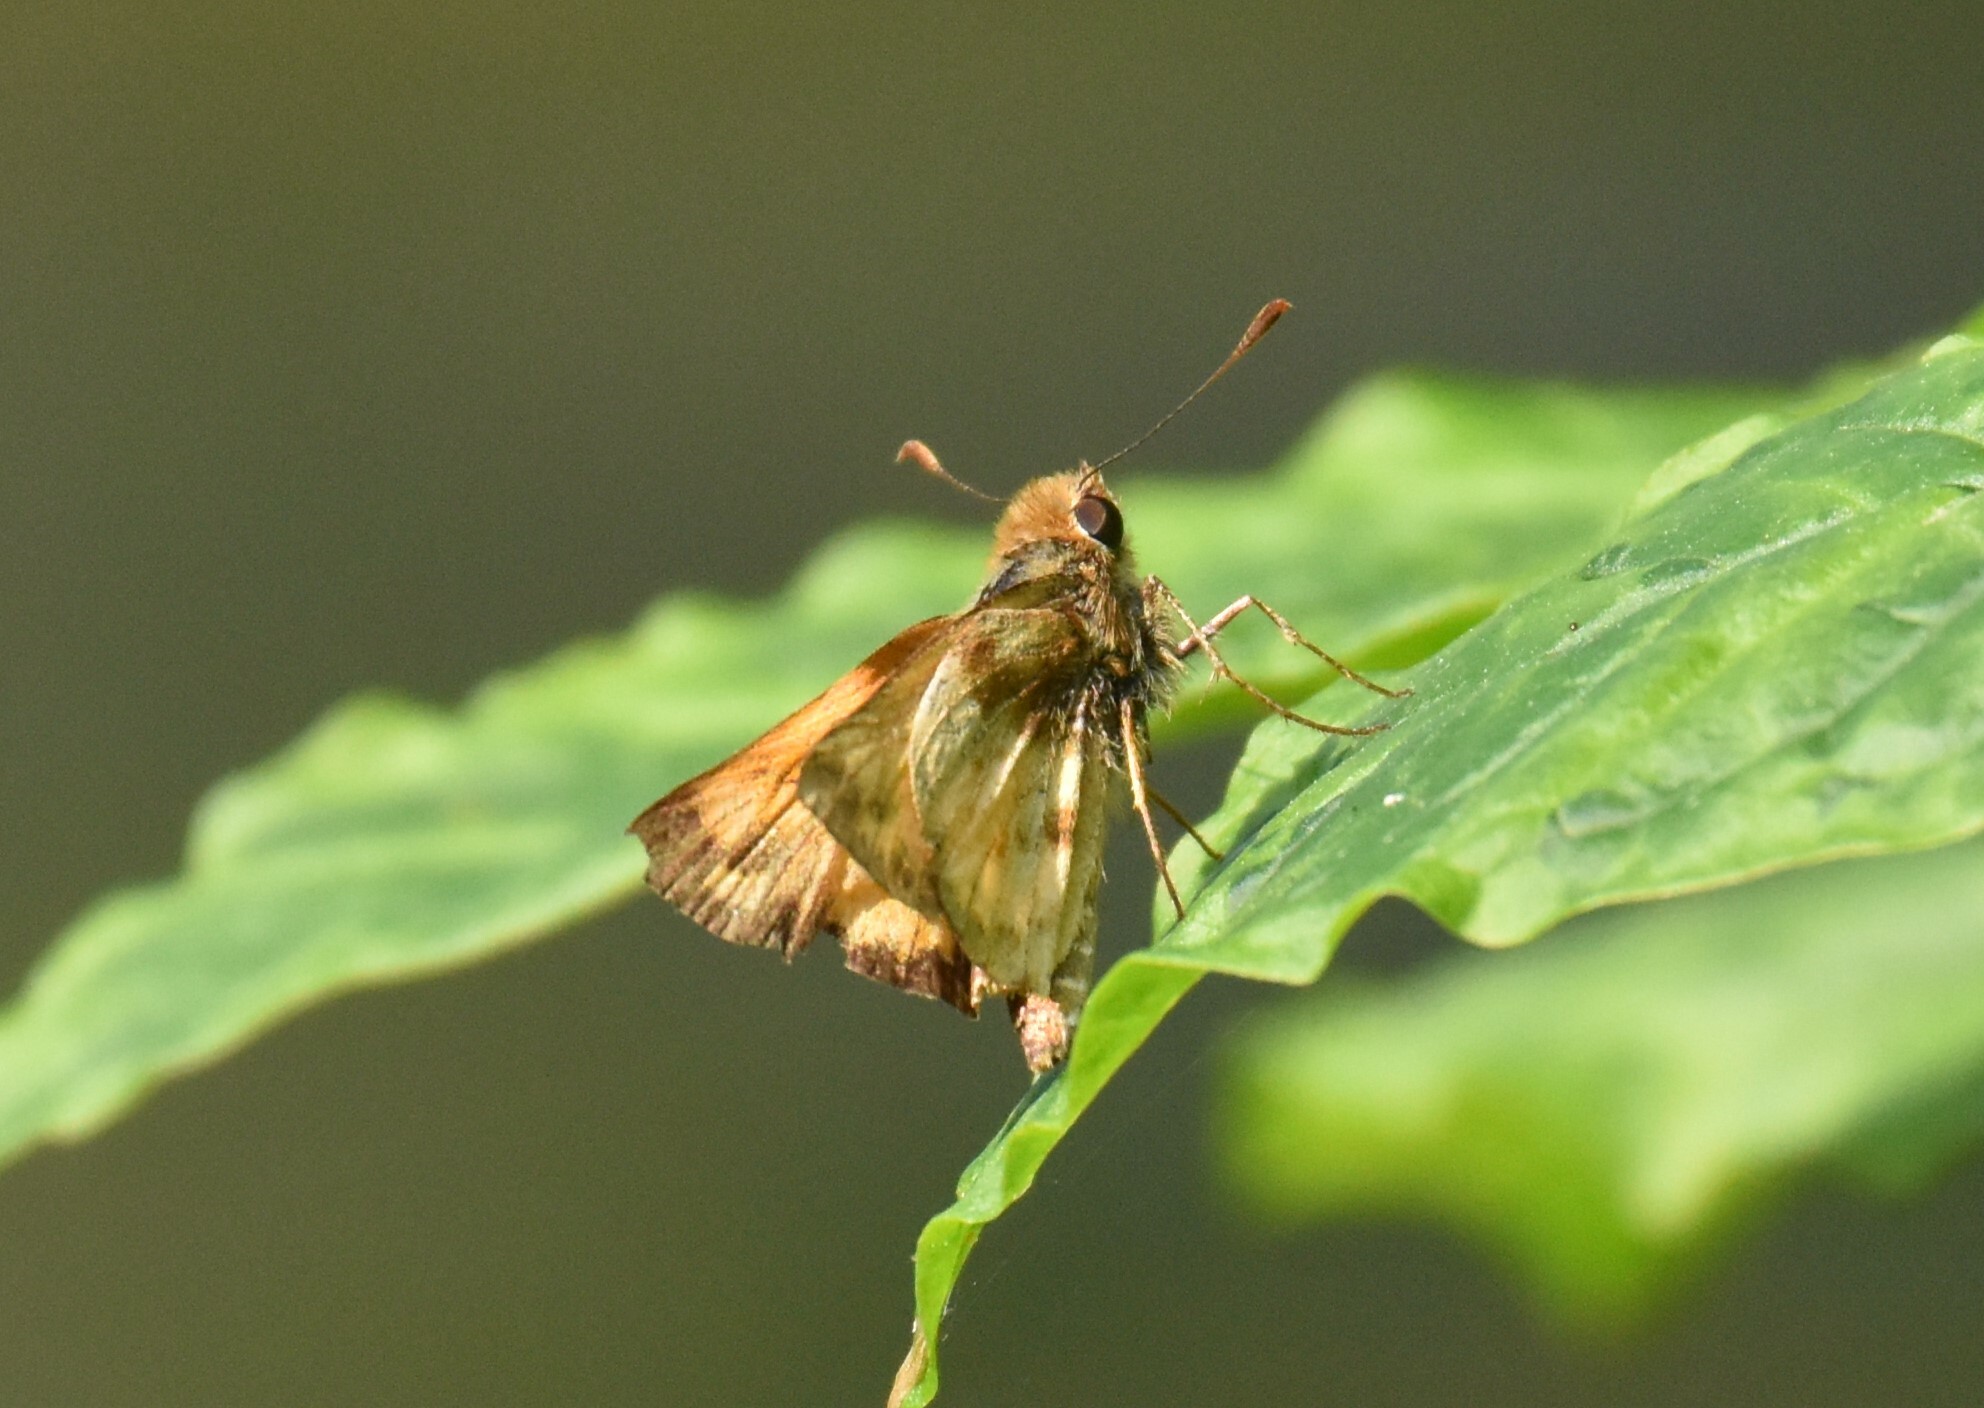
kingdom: Animalia
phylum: Arthropoda
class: Insecta
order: Lepidoptera
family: Hesperiidae
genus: Lon
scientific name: Lon zabulon
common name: Zabulon skipper
